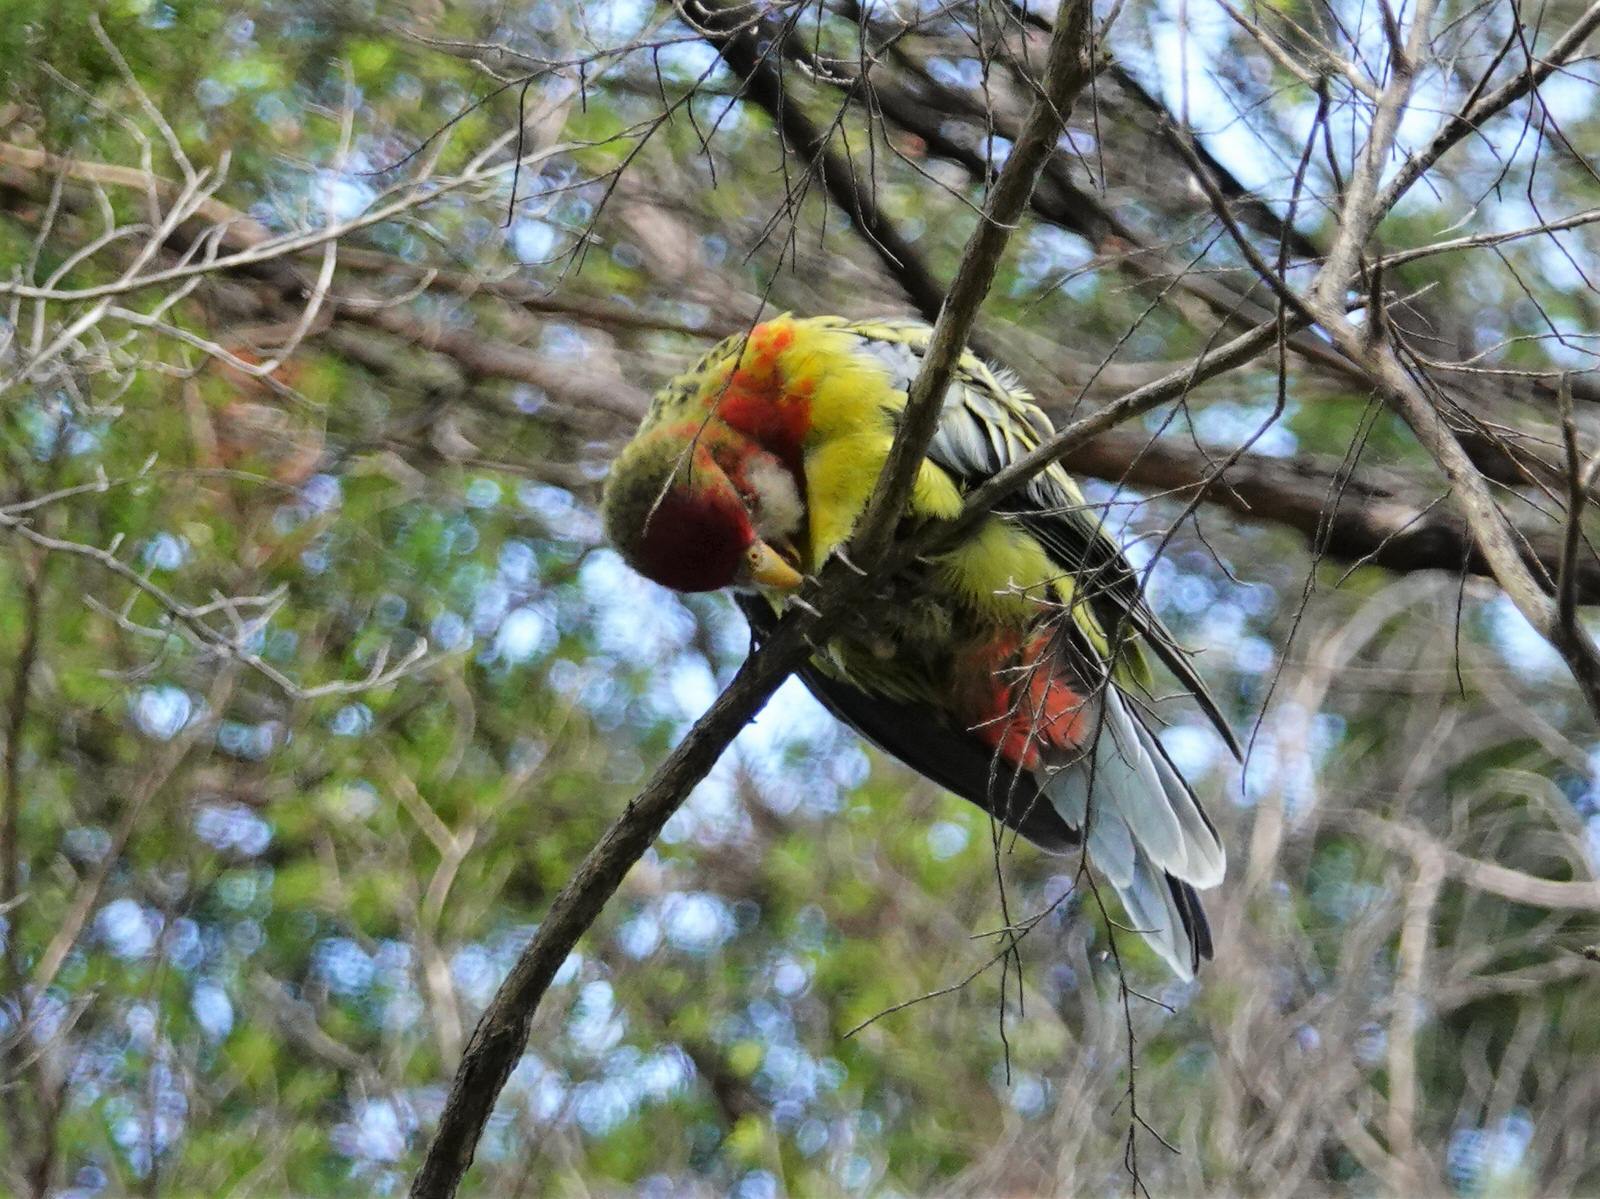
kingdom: Animalia
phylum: Chordata
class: Aves
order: Psittaciformes
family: Psittacidae
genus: Platycercus
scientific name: Platycercus eximius
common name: Eastern rosella
